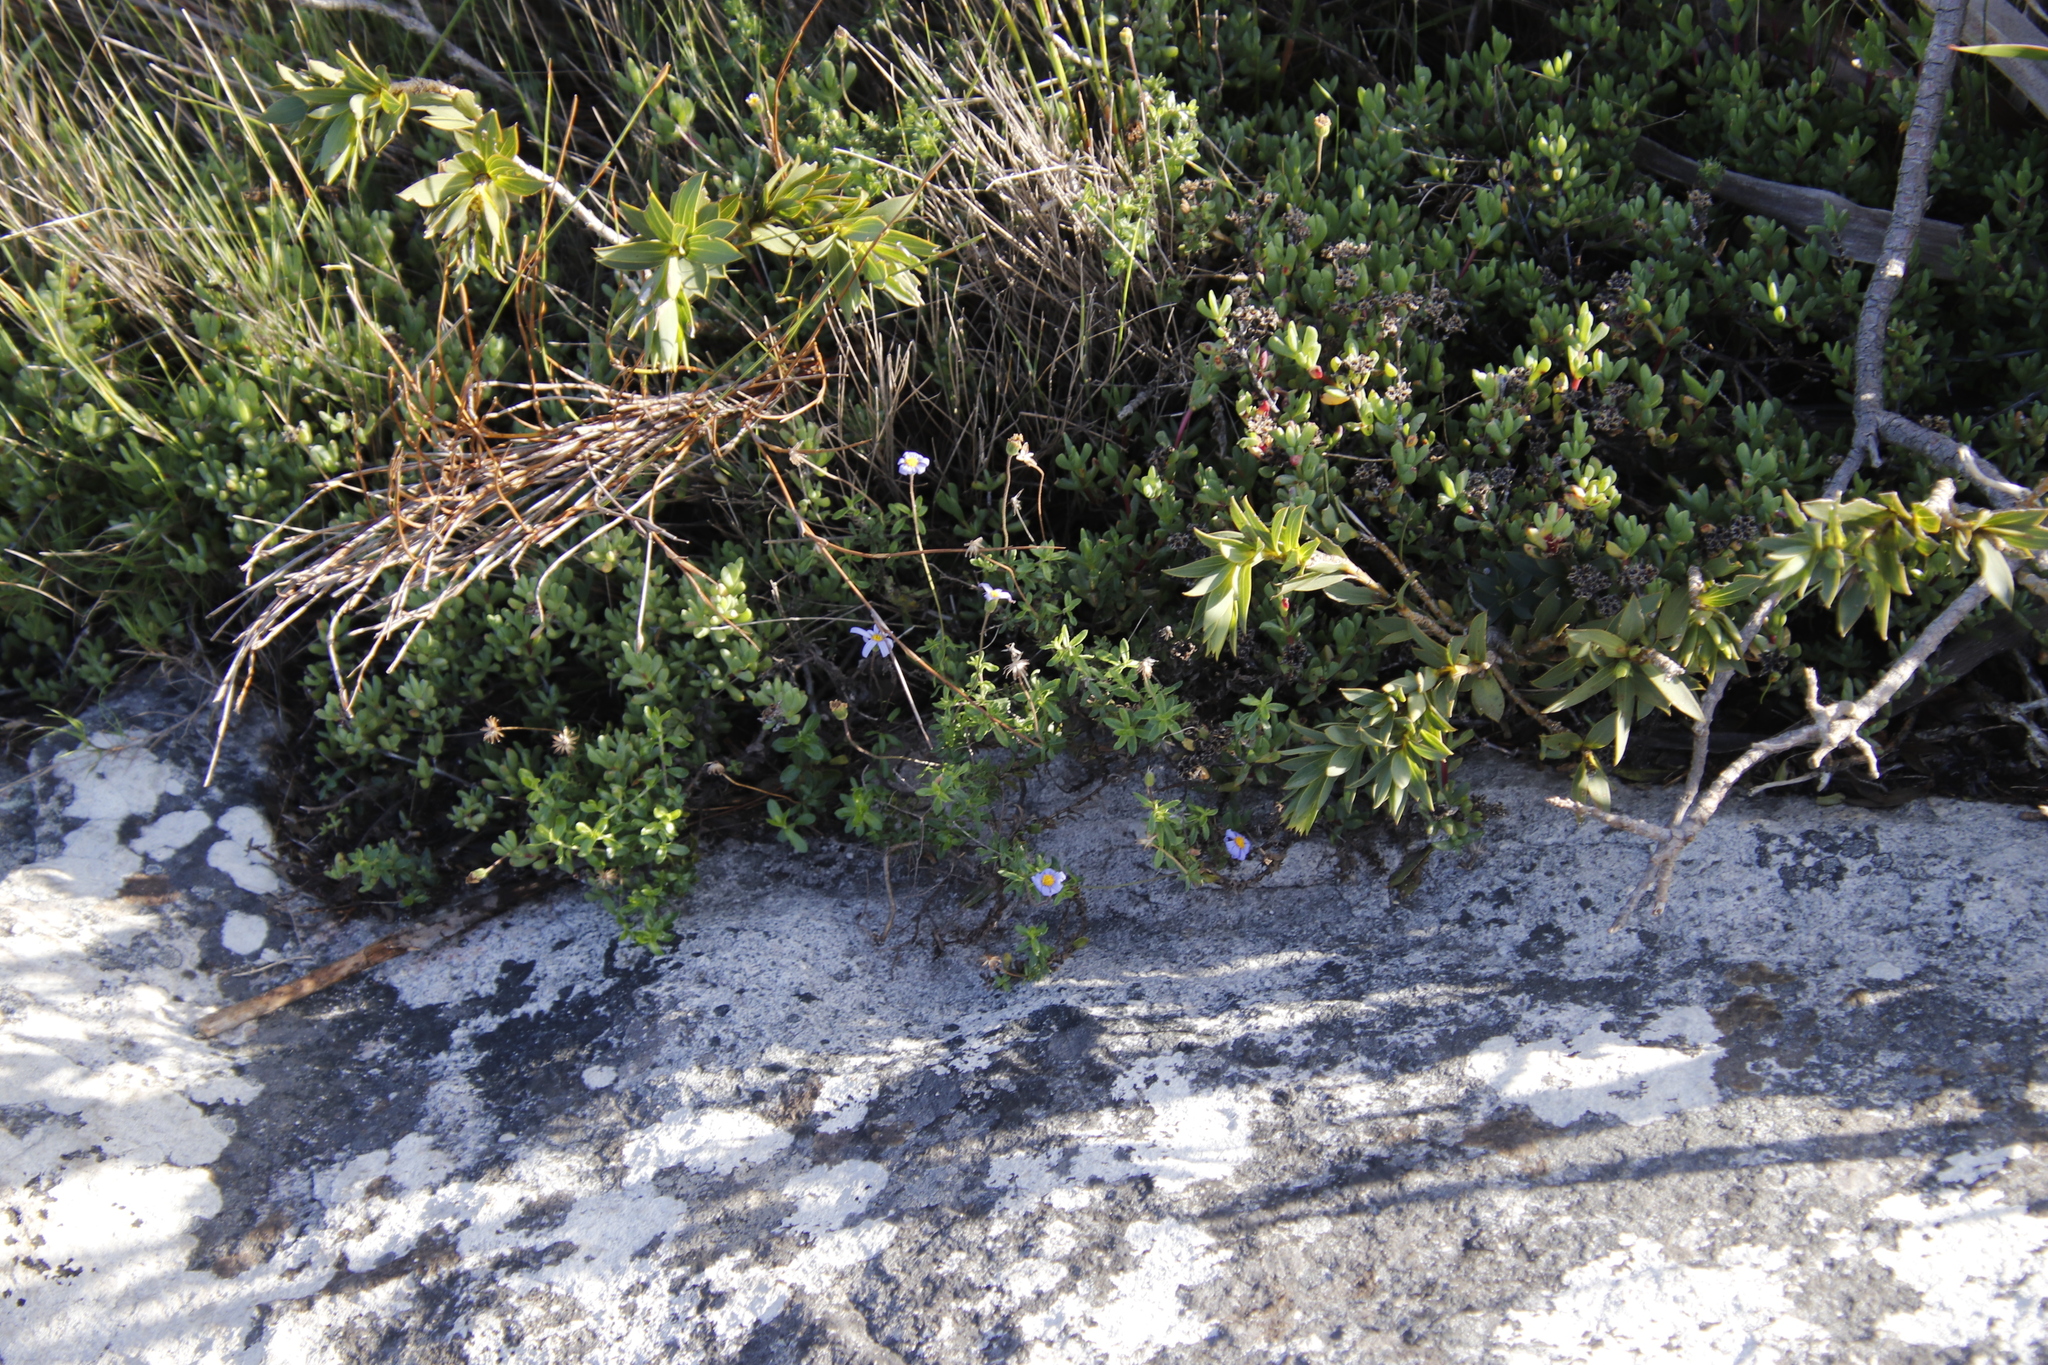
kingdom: Plantae
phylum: Tracheophyta
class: Magnoliopsida
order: Asterales
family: Asteraceae
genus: Felicia
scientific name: Felicia aethiopica
